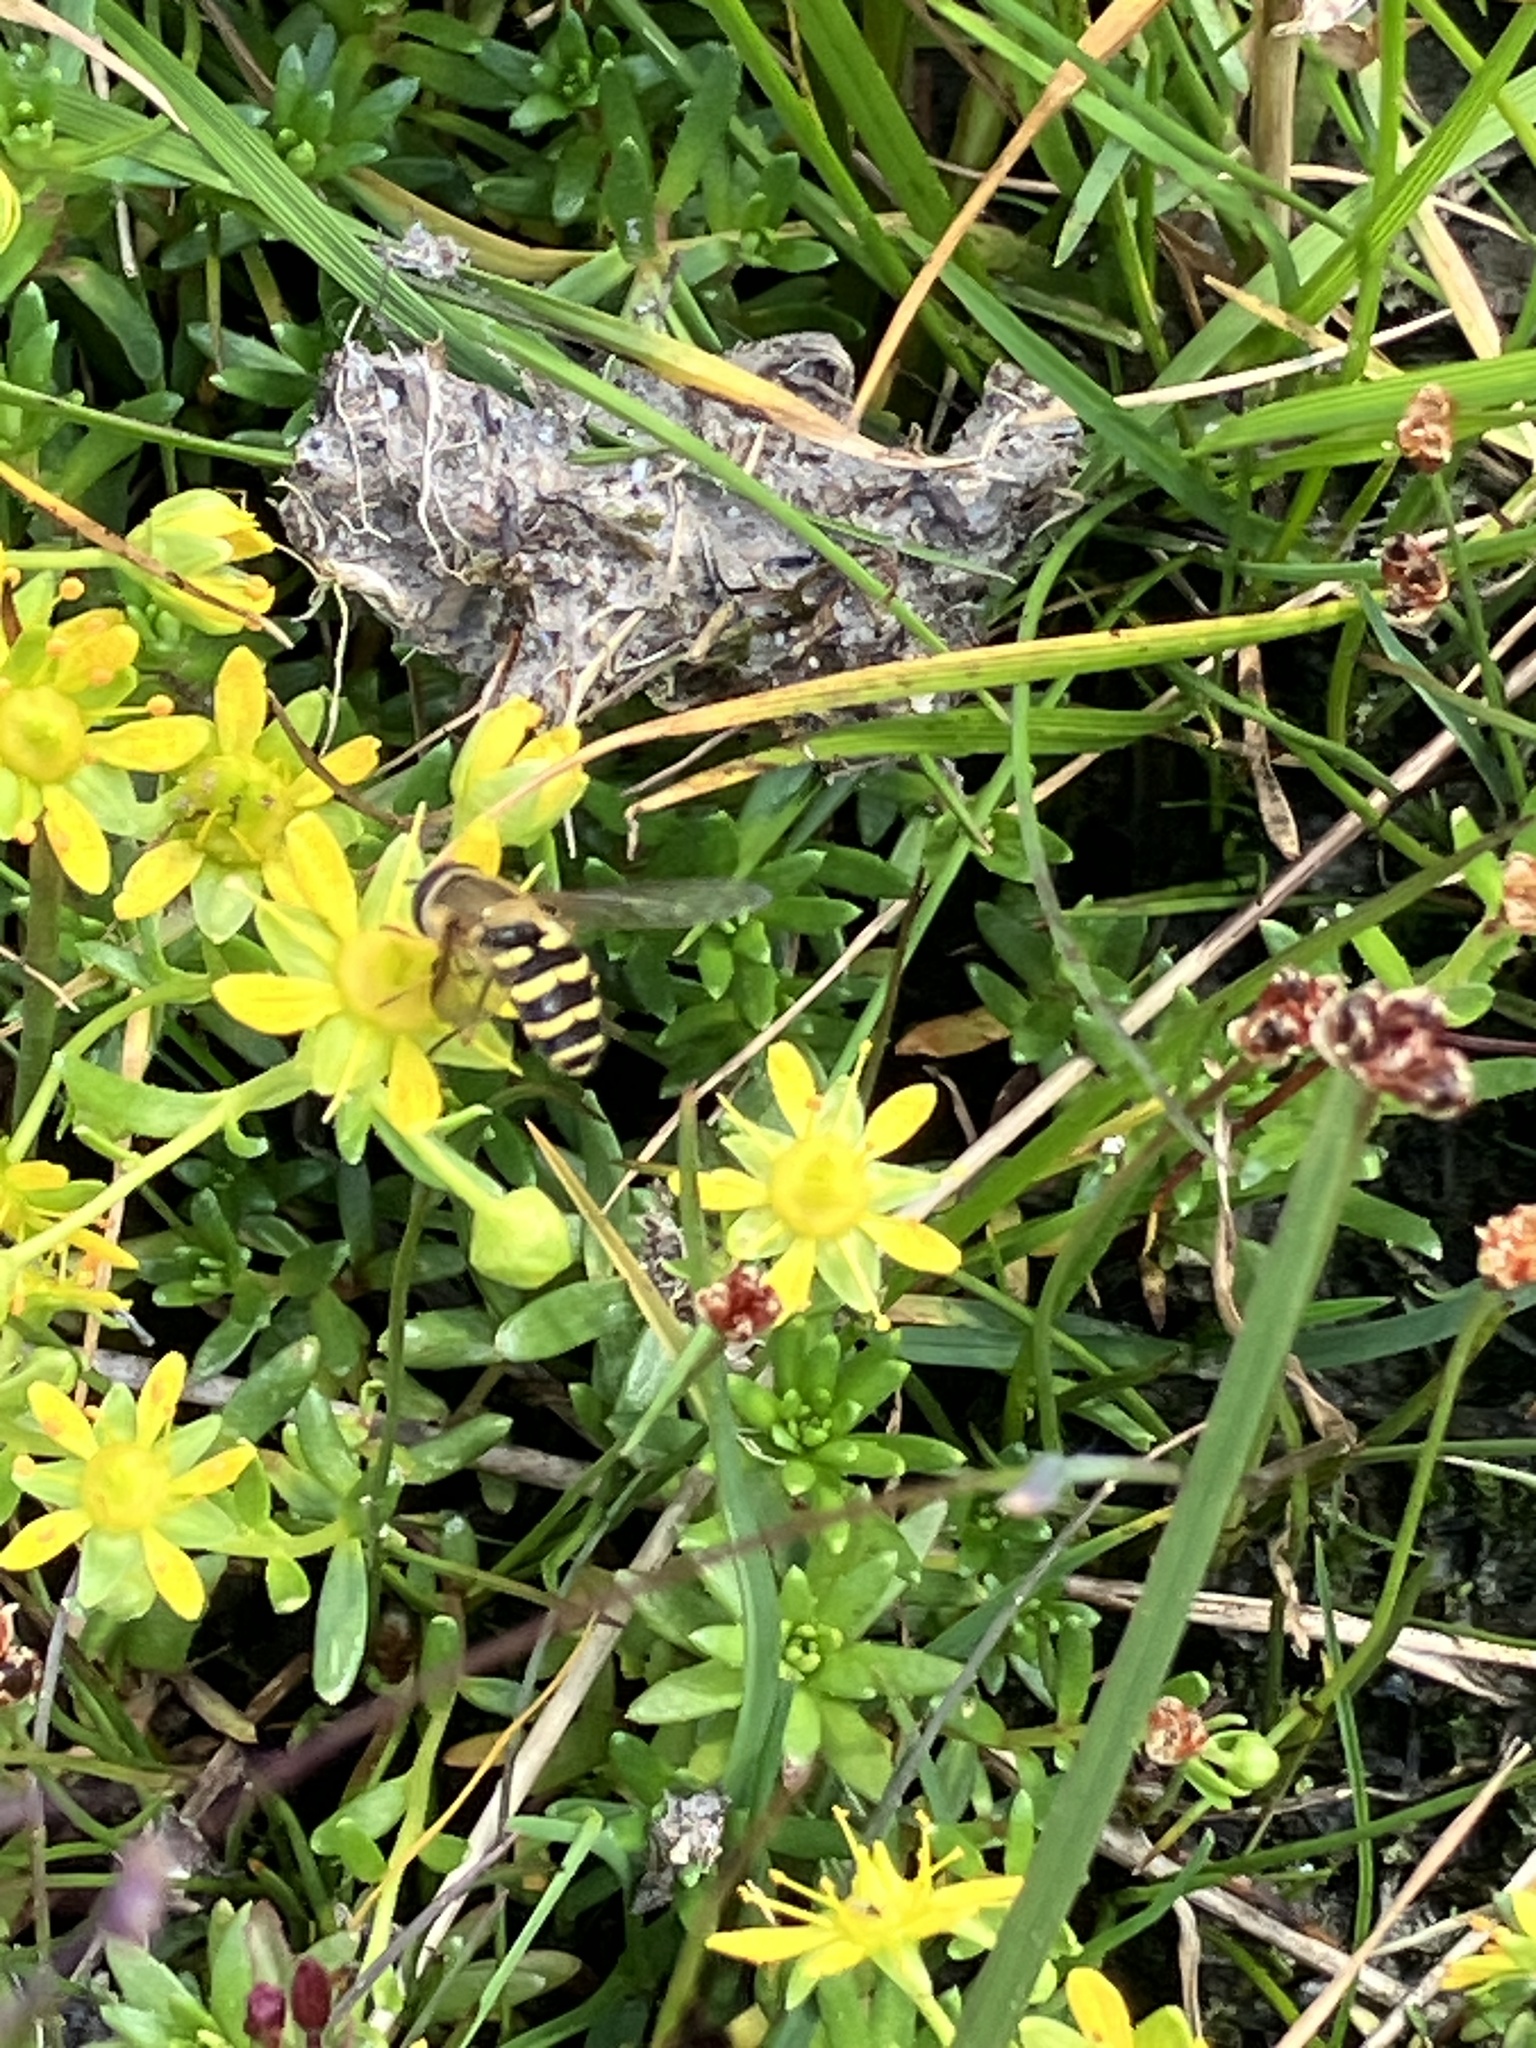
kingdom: Plantae
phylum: Tracheophyta
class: Magnoliopsida
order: Saxifragales
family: Saxifragaceae
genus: Saxifraga
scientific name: Saxifraga aizoides
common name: Yellow mountain saxifrage
